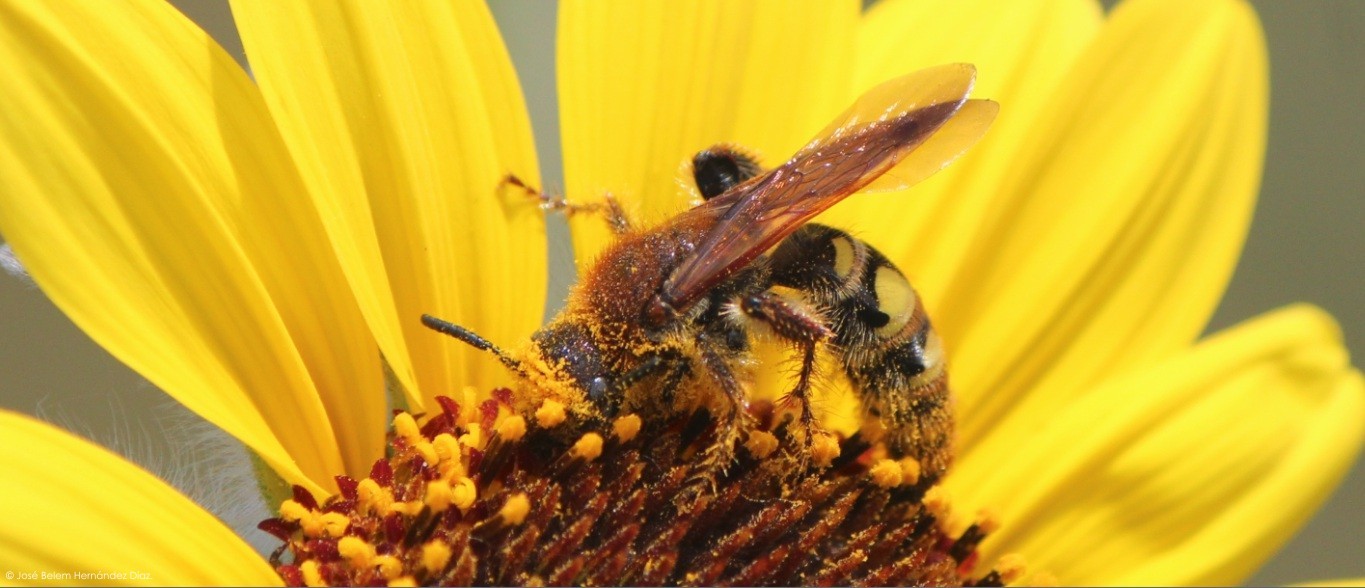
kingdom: Animalia
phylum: Arthropoda
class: Insecta
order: Hymenoptera
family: Scoliidae
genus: Xantocampsomeris
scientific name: Xantocampsomeris limosa
